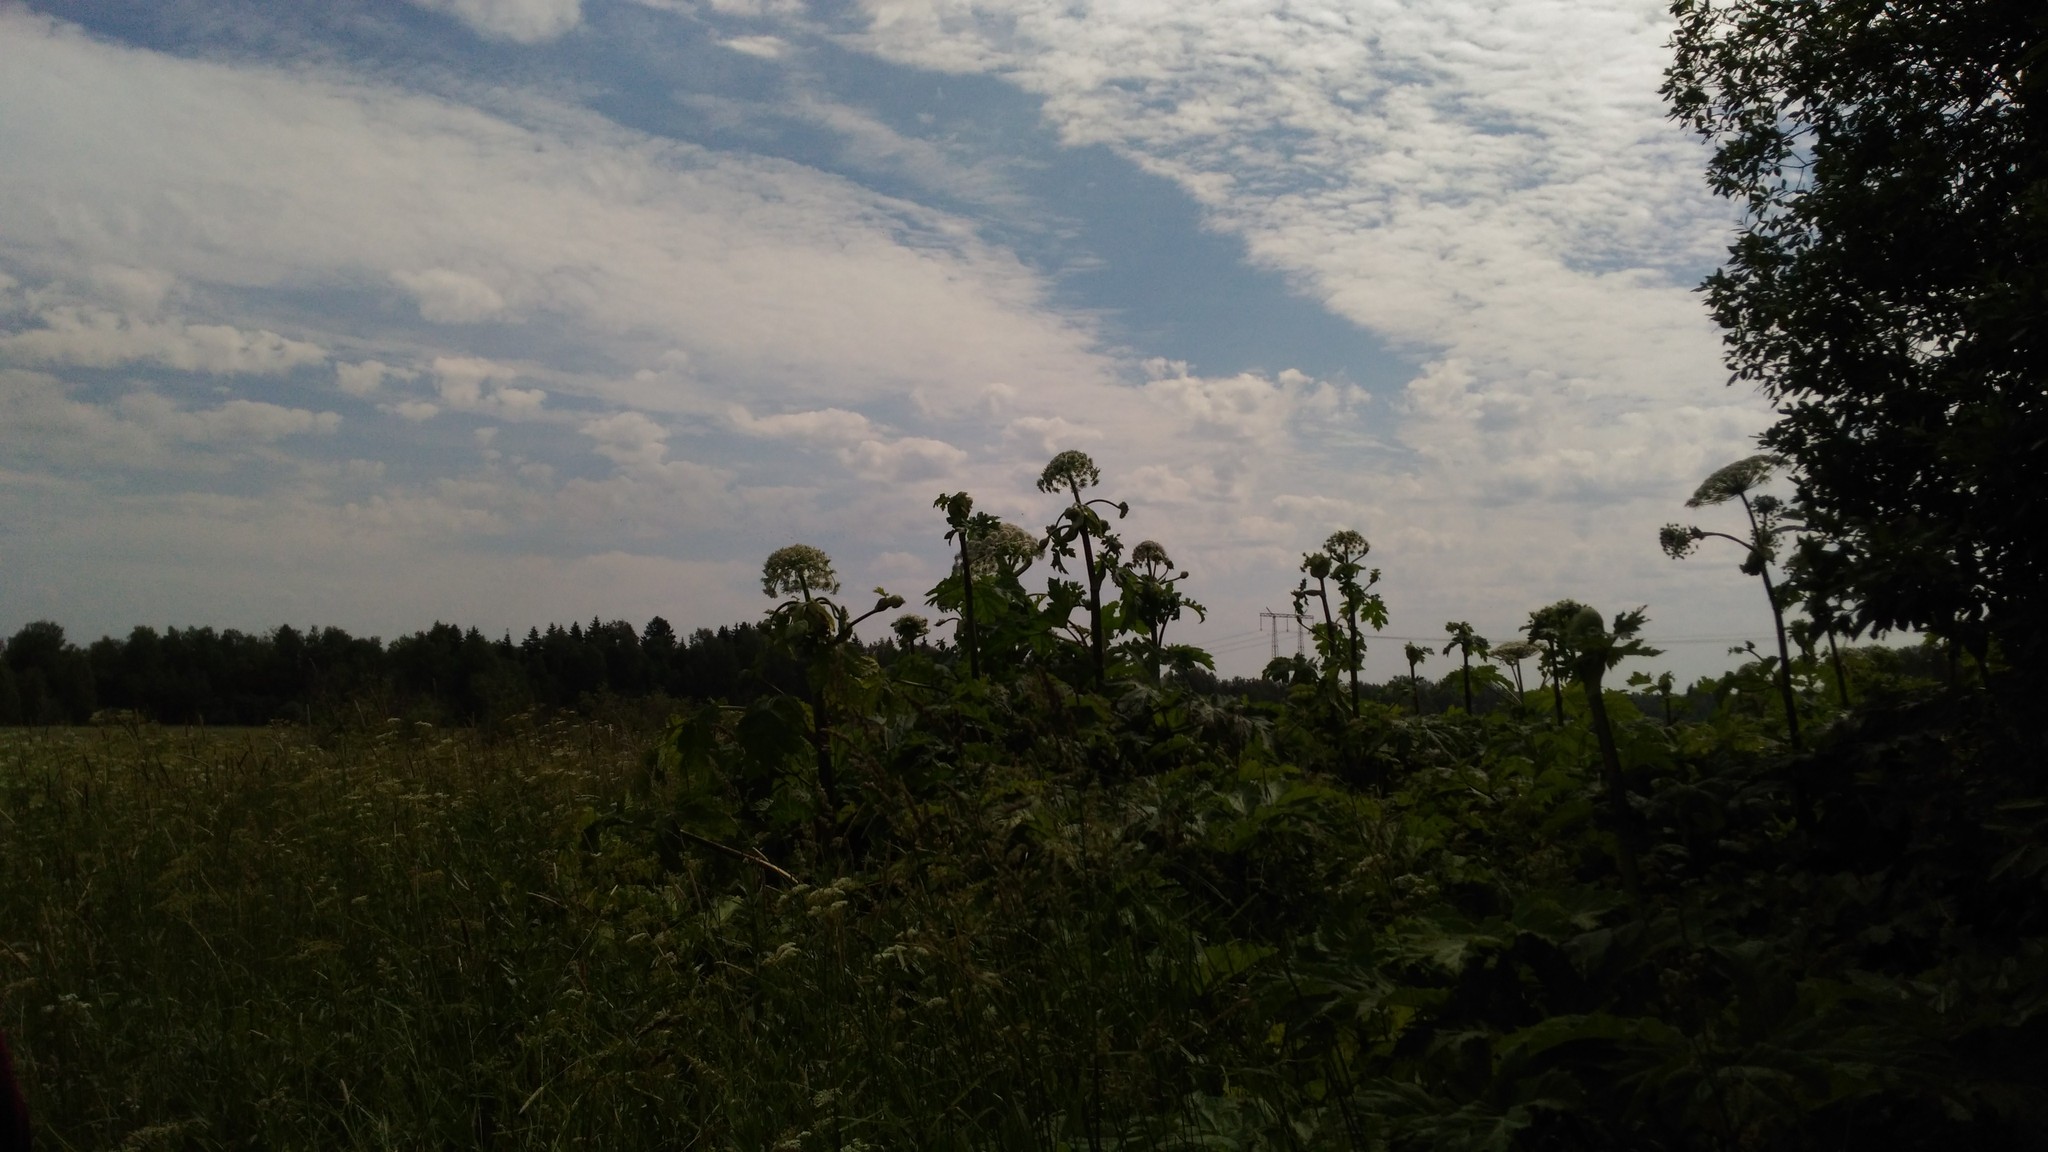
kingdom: Plantae
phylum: Tracheophyta
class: Magnoliopsida
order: Apiales
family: Apiaceae
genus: Heracleum
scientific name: Heracleum sosnowskyi
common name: Sosnowsky's hogweed
